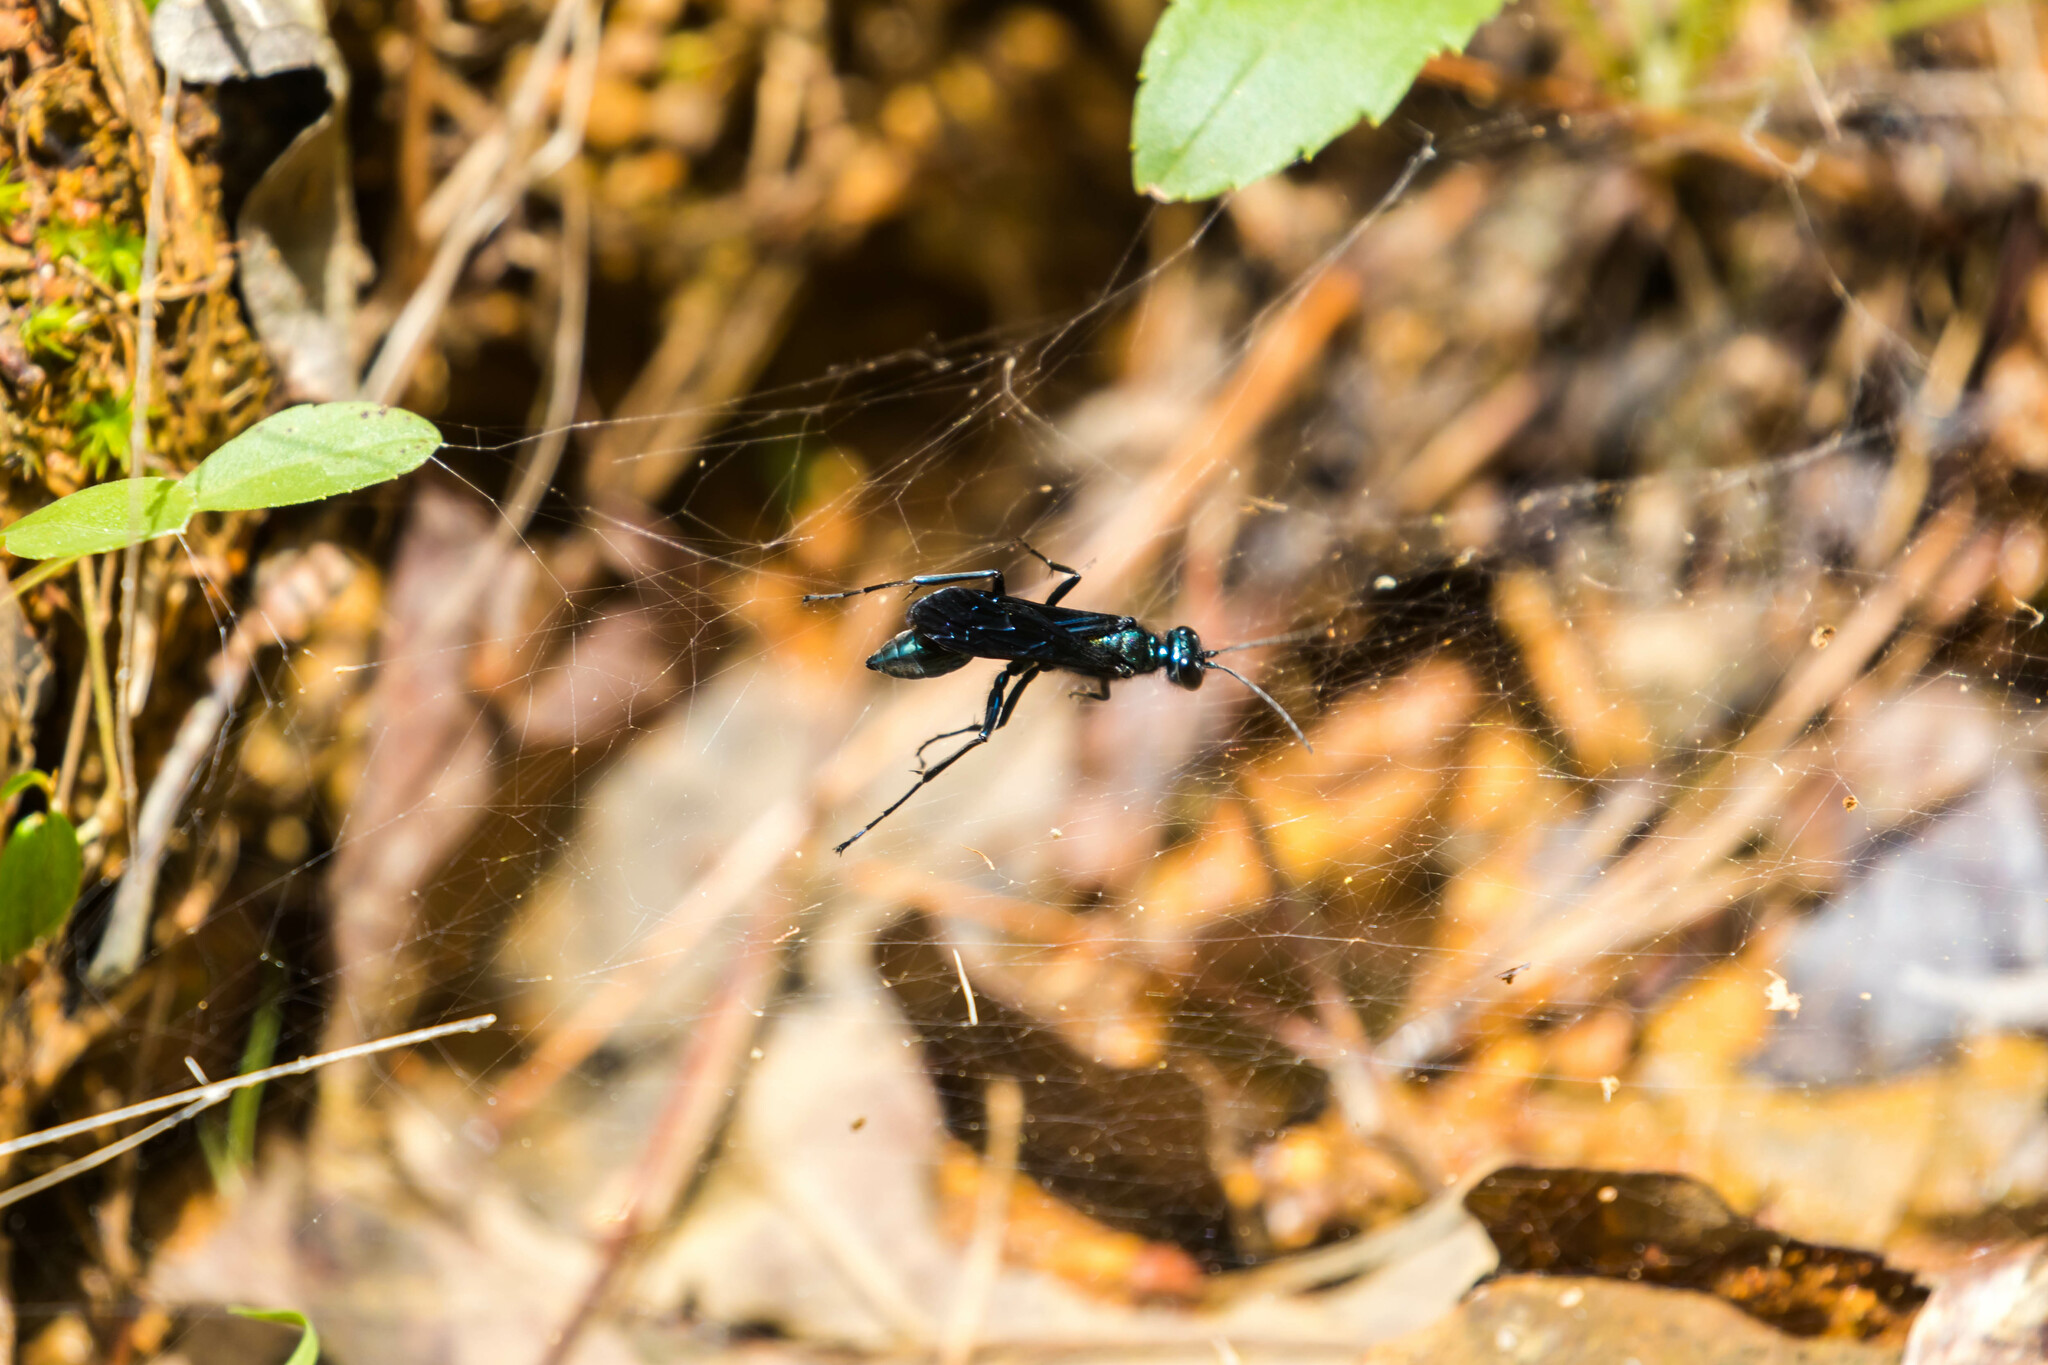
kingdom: Animalia
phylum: Arthropoda
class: Insecta
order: Hymenoptera
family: Sphecidae
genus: Chalybion
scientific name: Chalybion californicum
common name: Mud dauber
